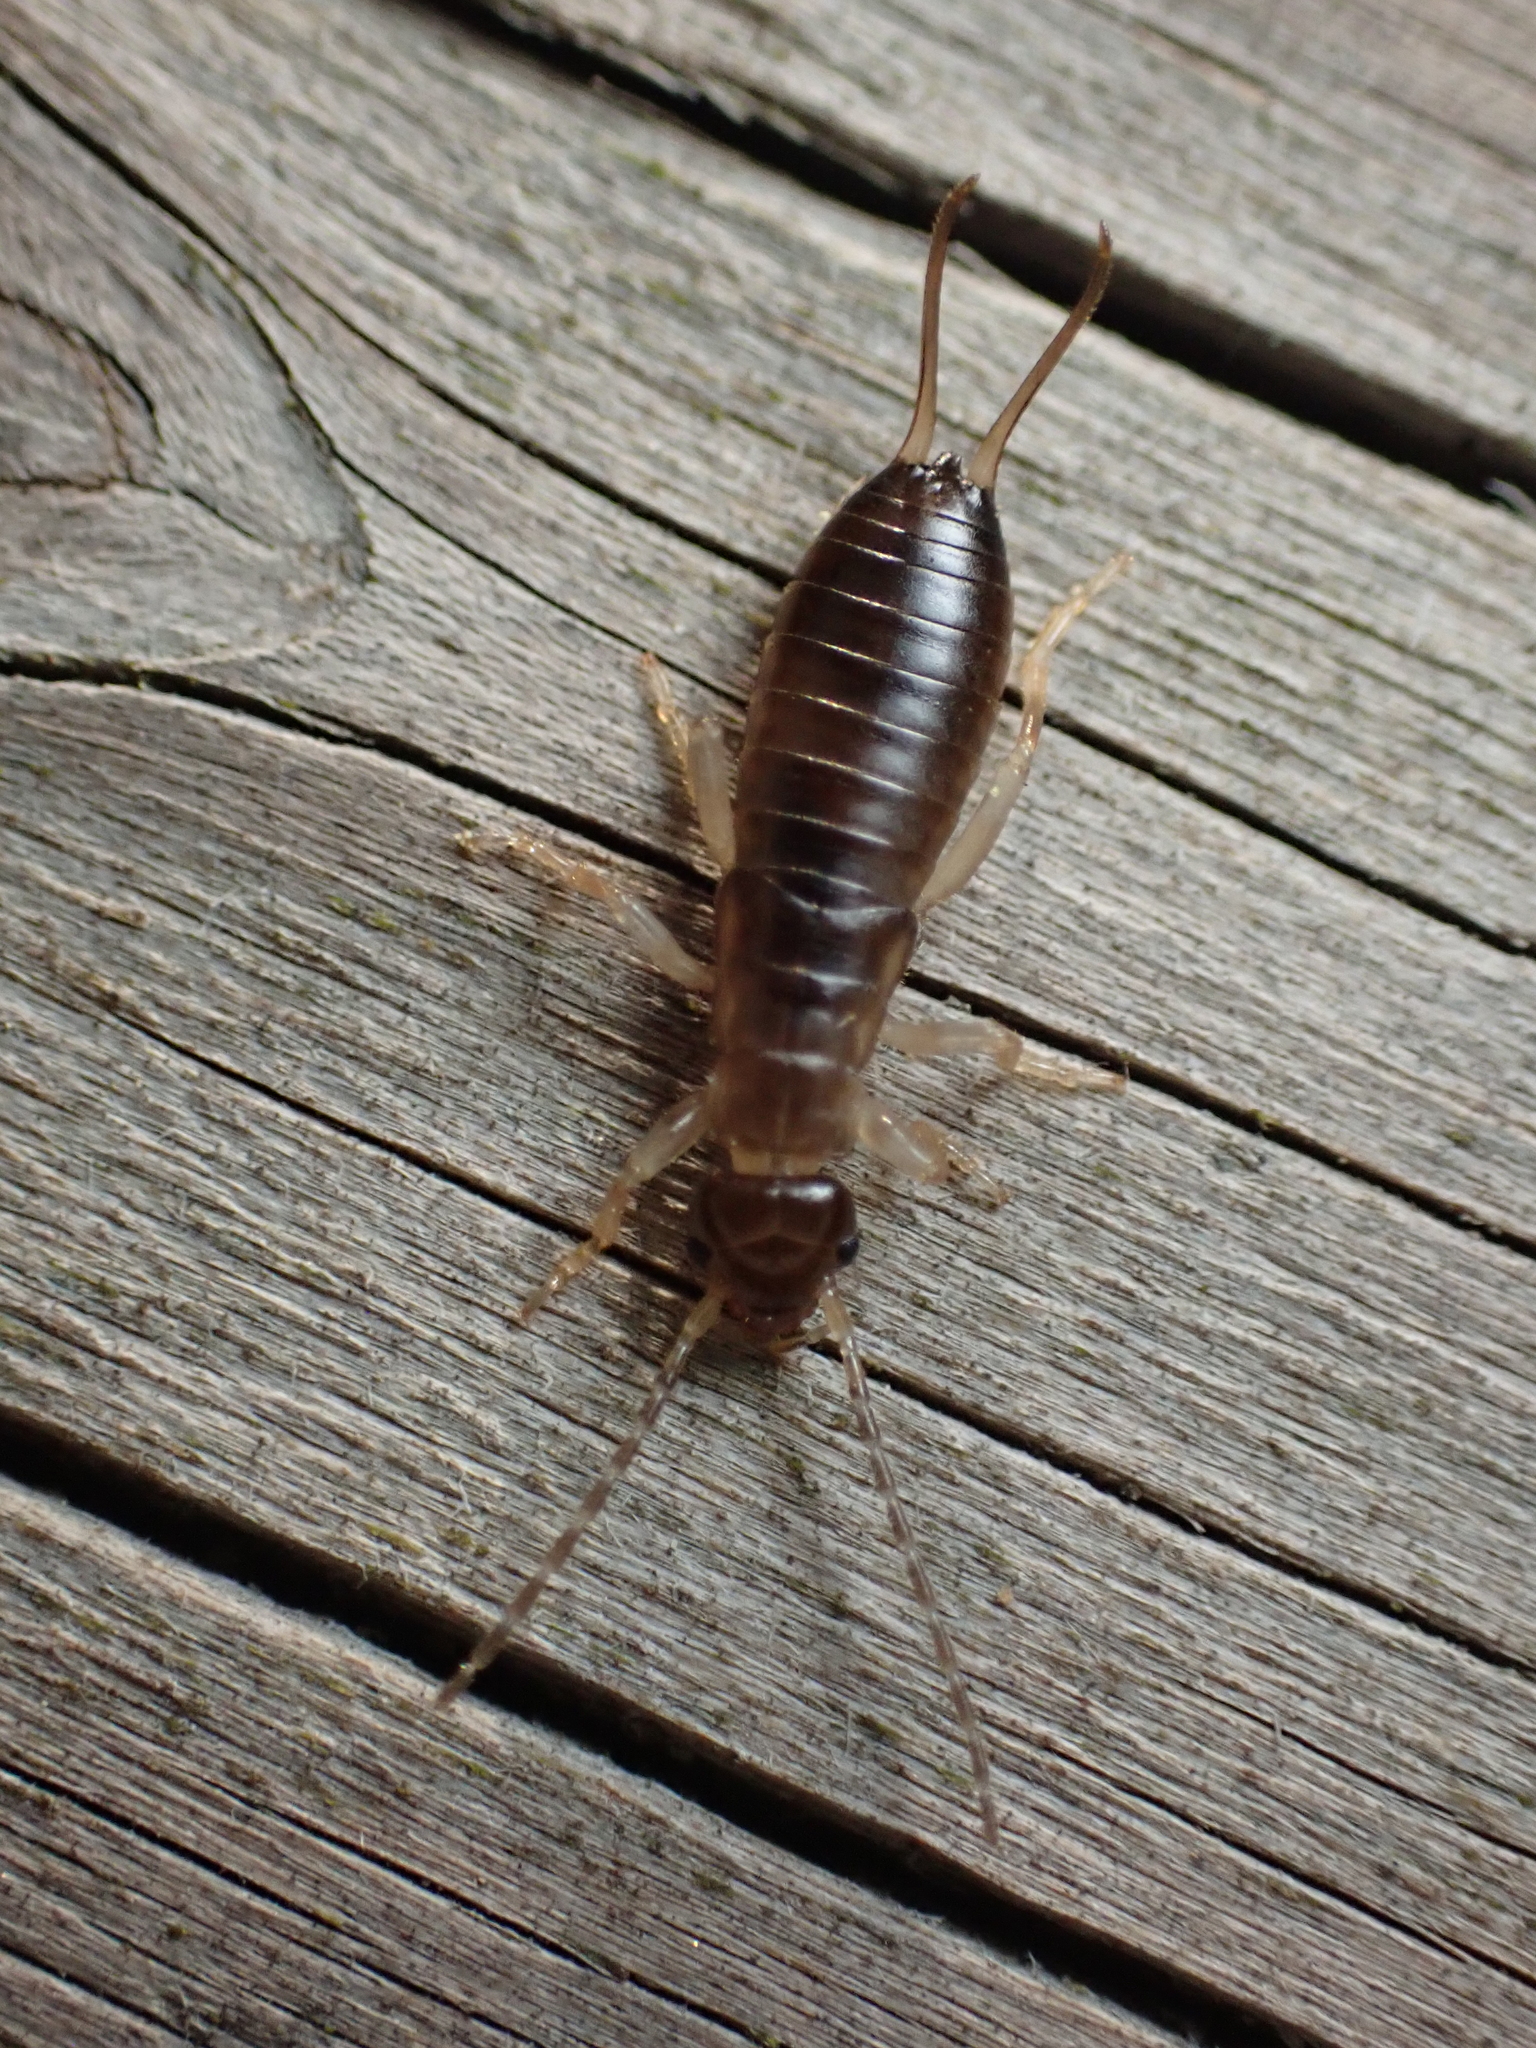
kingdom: Animalia
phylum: Arthropoda
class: Insecta
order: Dermaptera
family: Forficulidae
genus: Forficula
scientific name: Forficula
